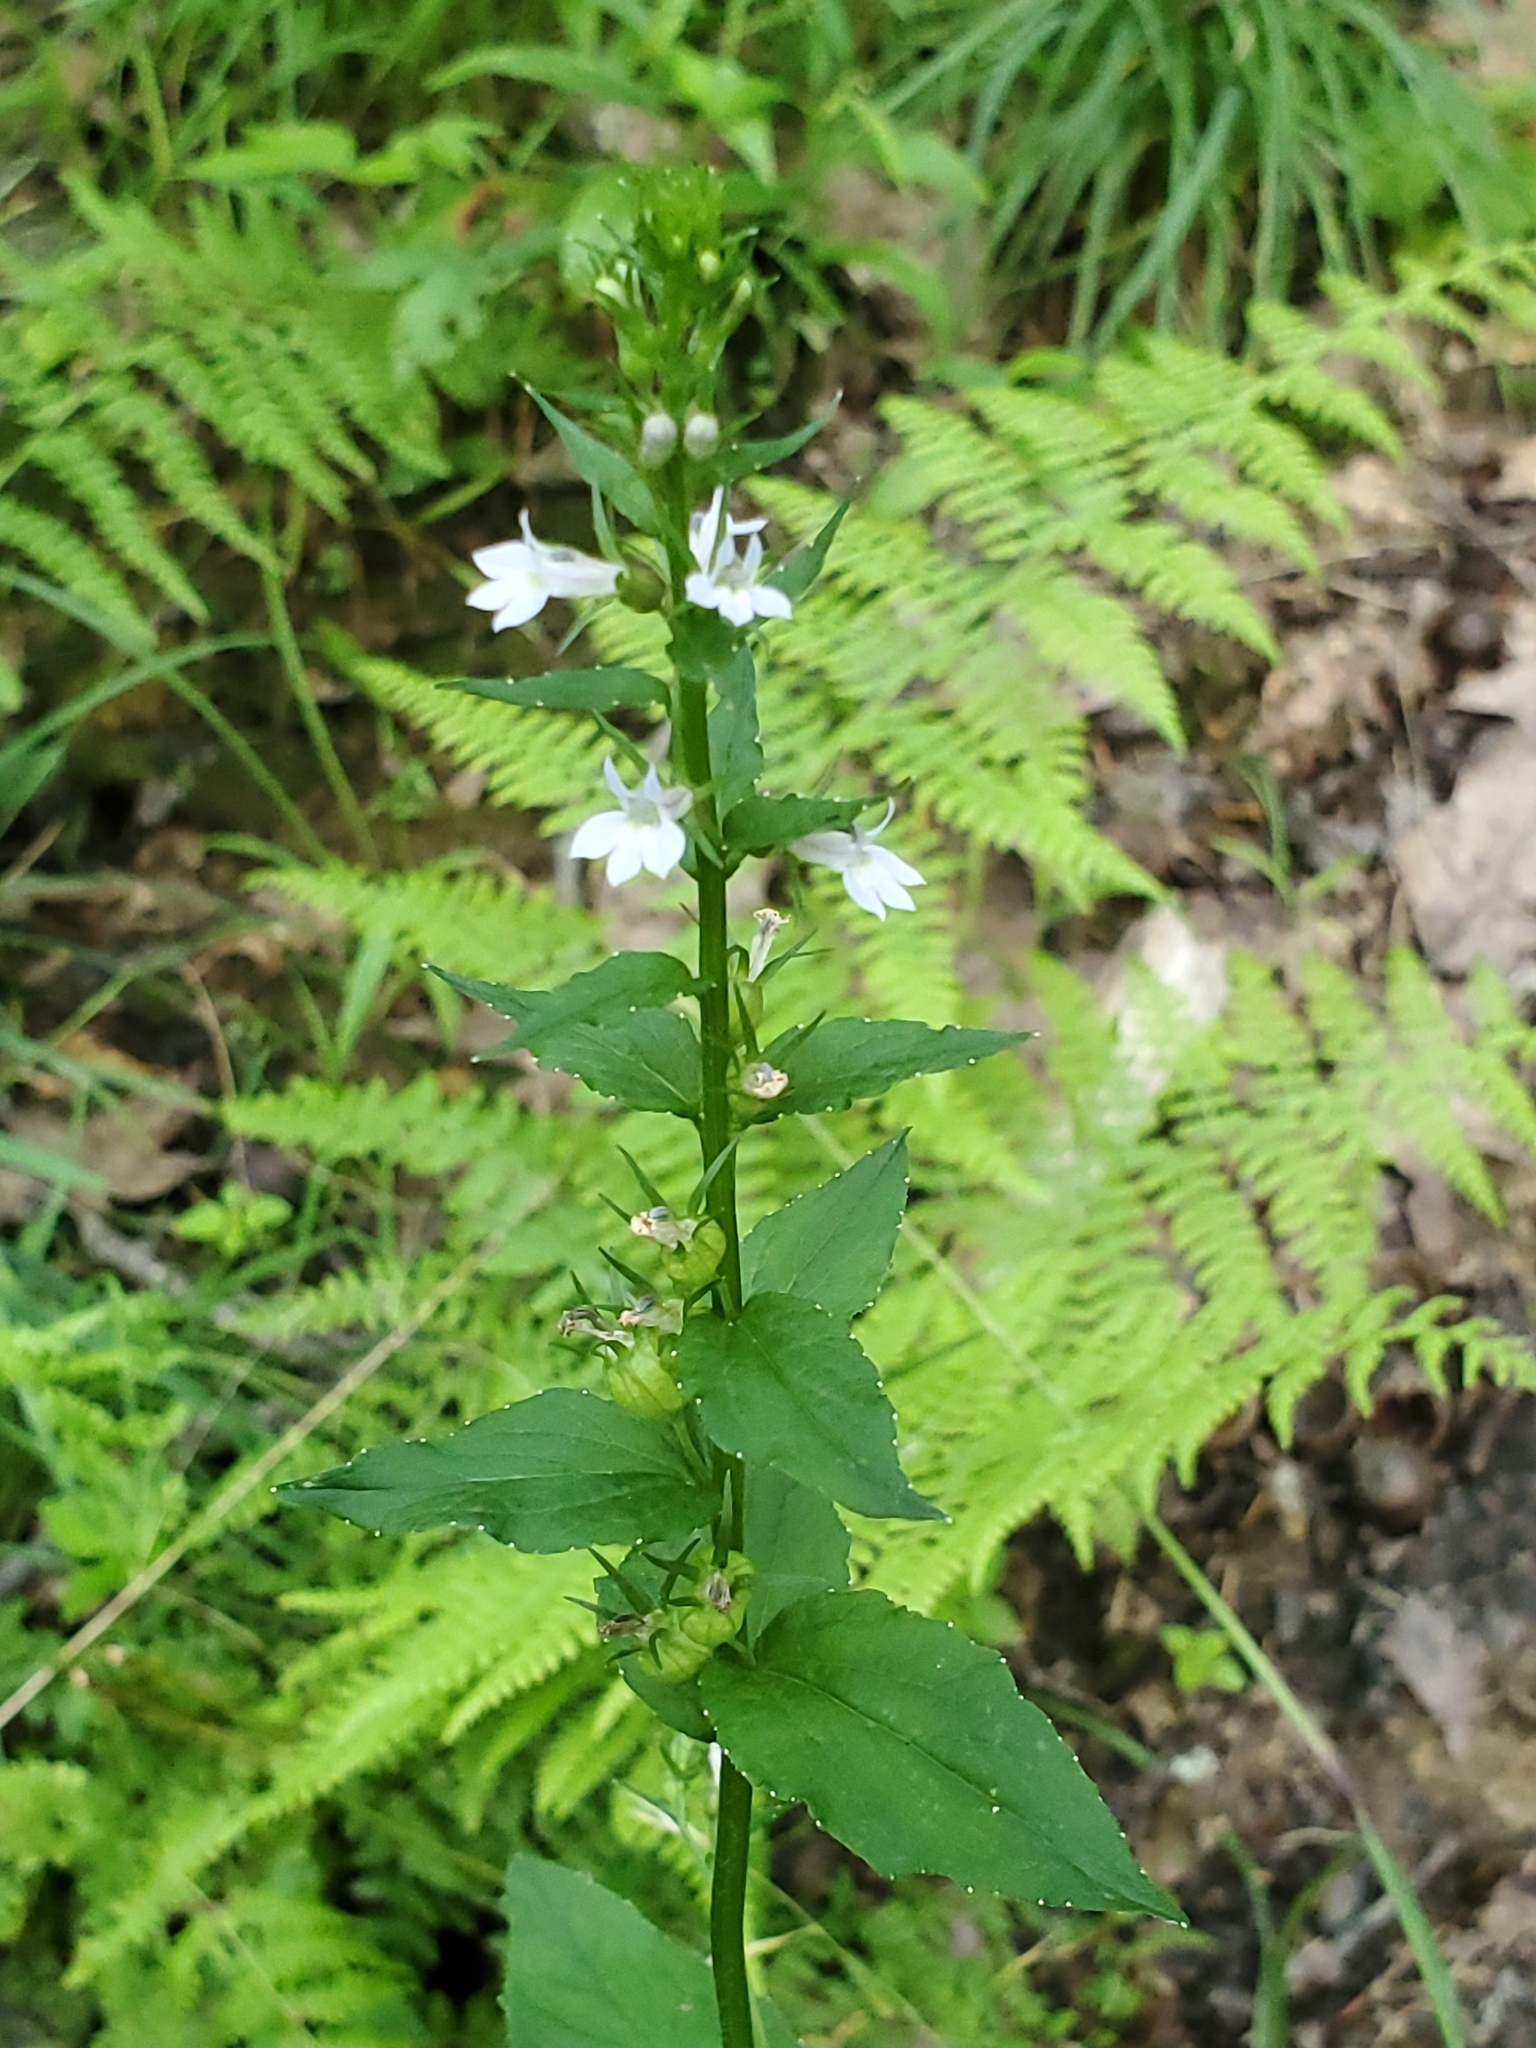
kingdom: Plantae
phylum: Tracheophyta
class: Magnoliopsida
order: Asterales
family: Campanulaceae
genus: Lobelia
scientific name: Lobelia inflata
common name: Indian tobacco
